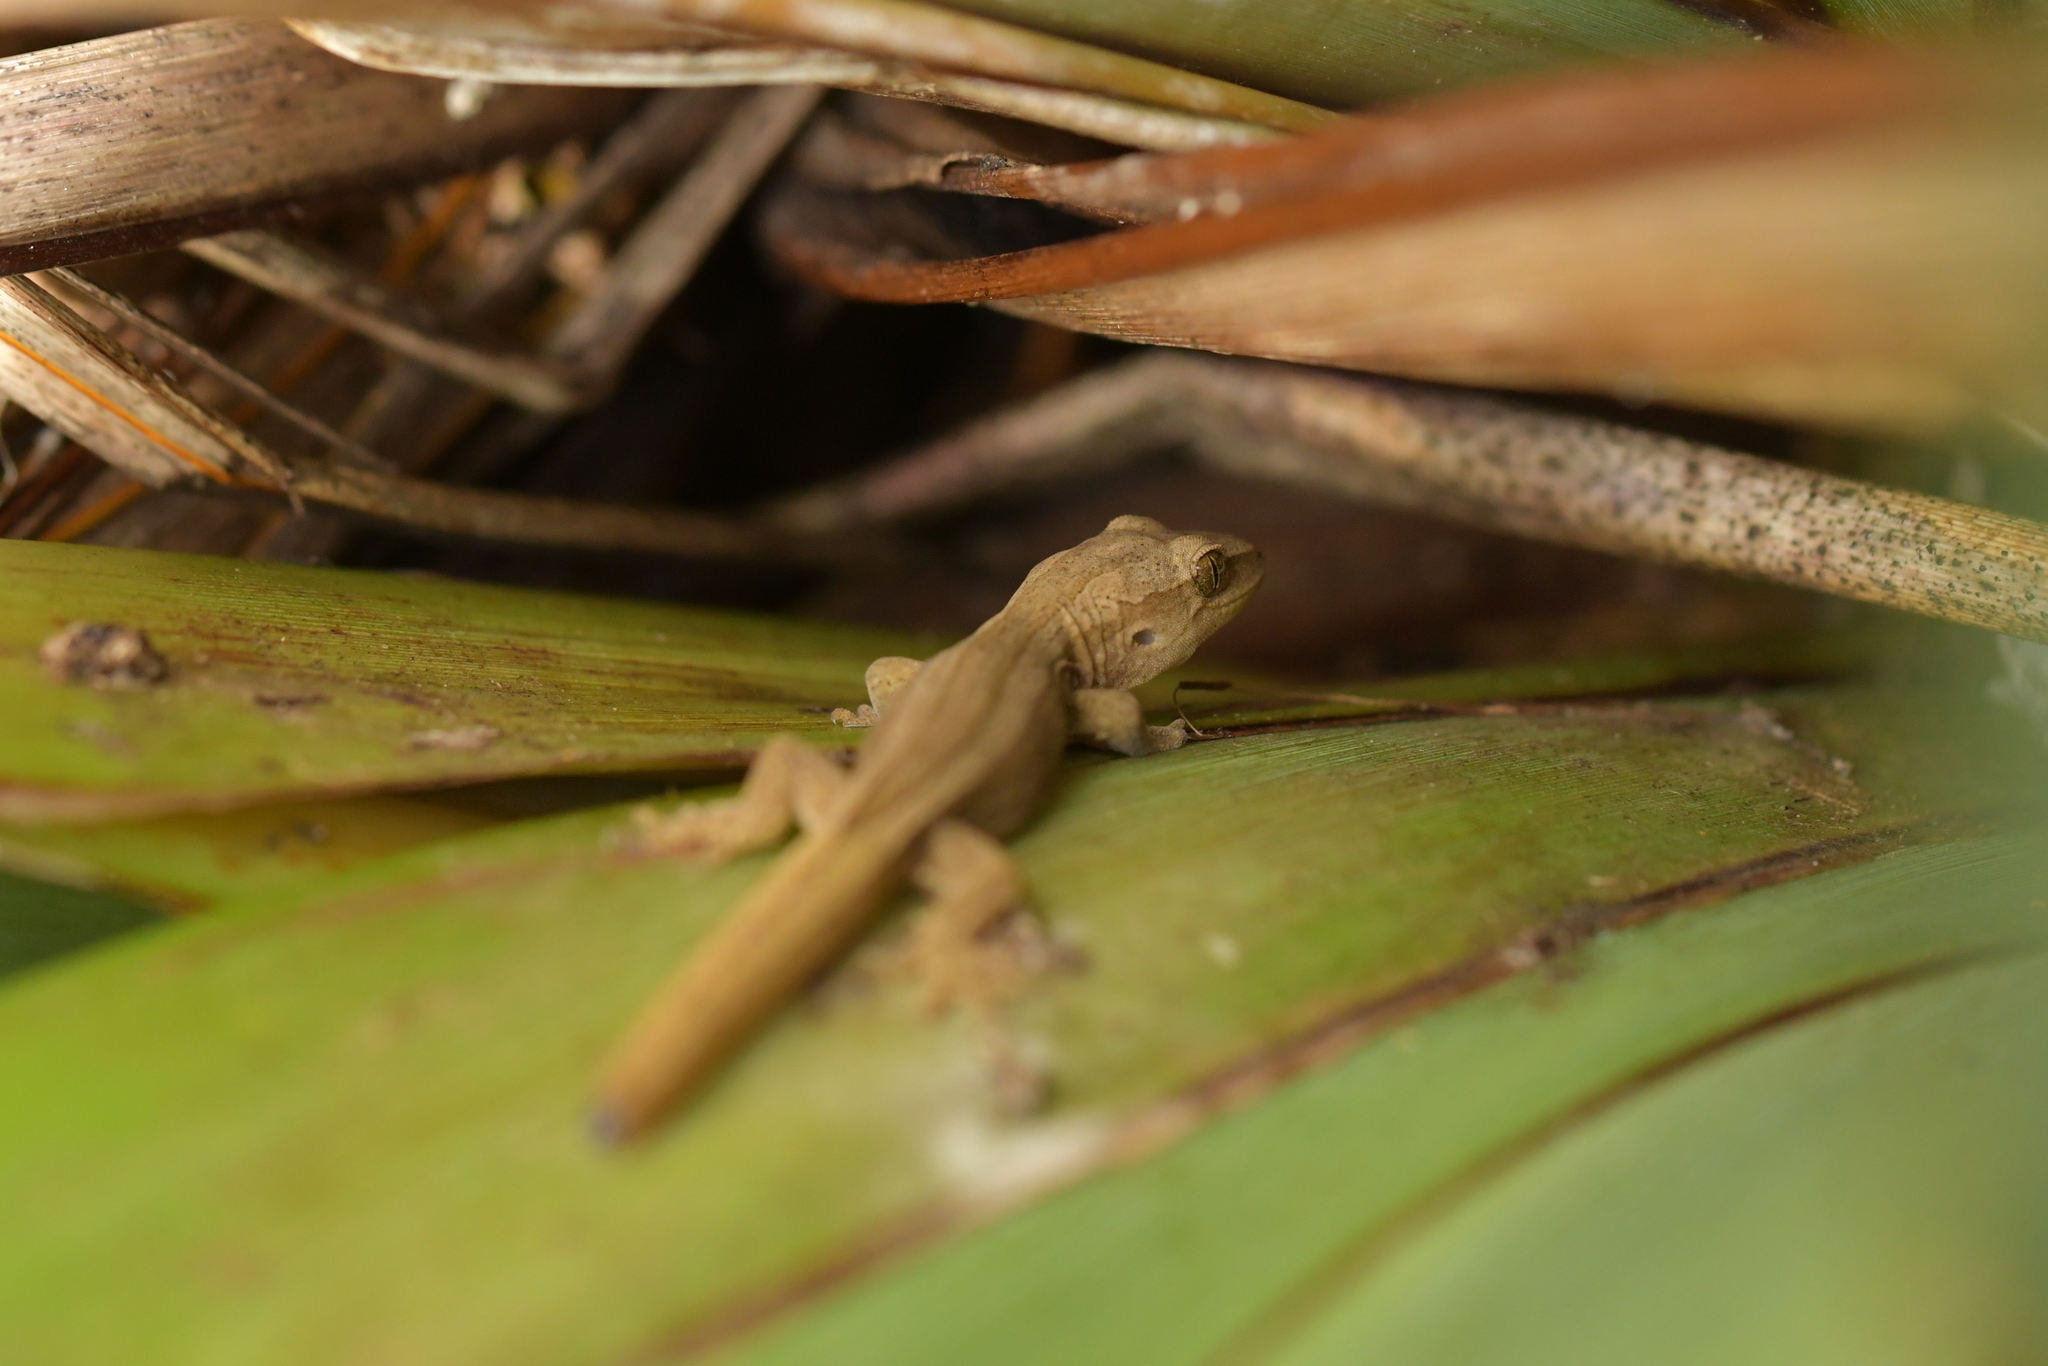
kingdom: Animalia
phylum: Chordata
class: Squamata
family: Diplodactylidae
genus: Woodworthia
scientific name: Woodworthia chrysosiretica
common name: Gold-striped gecko
